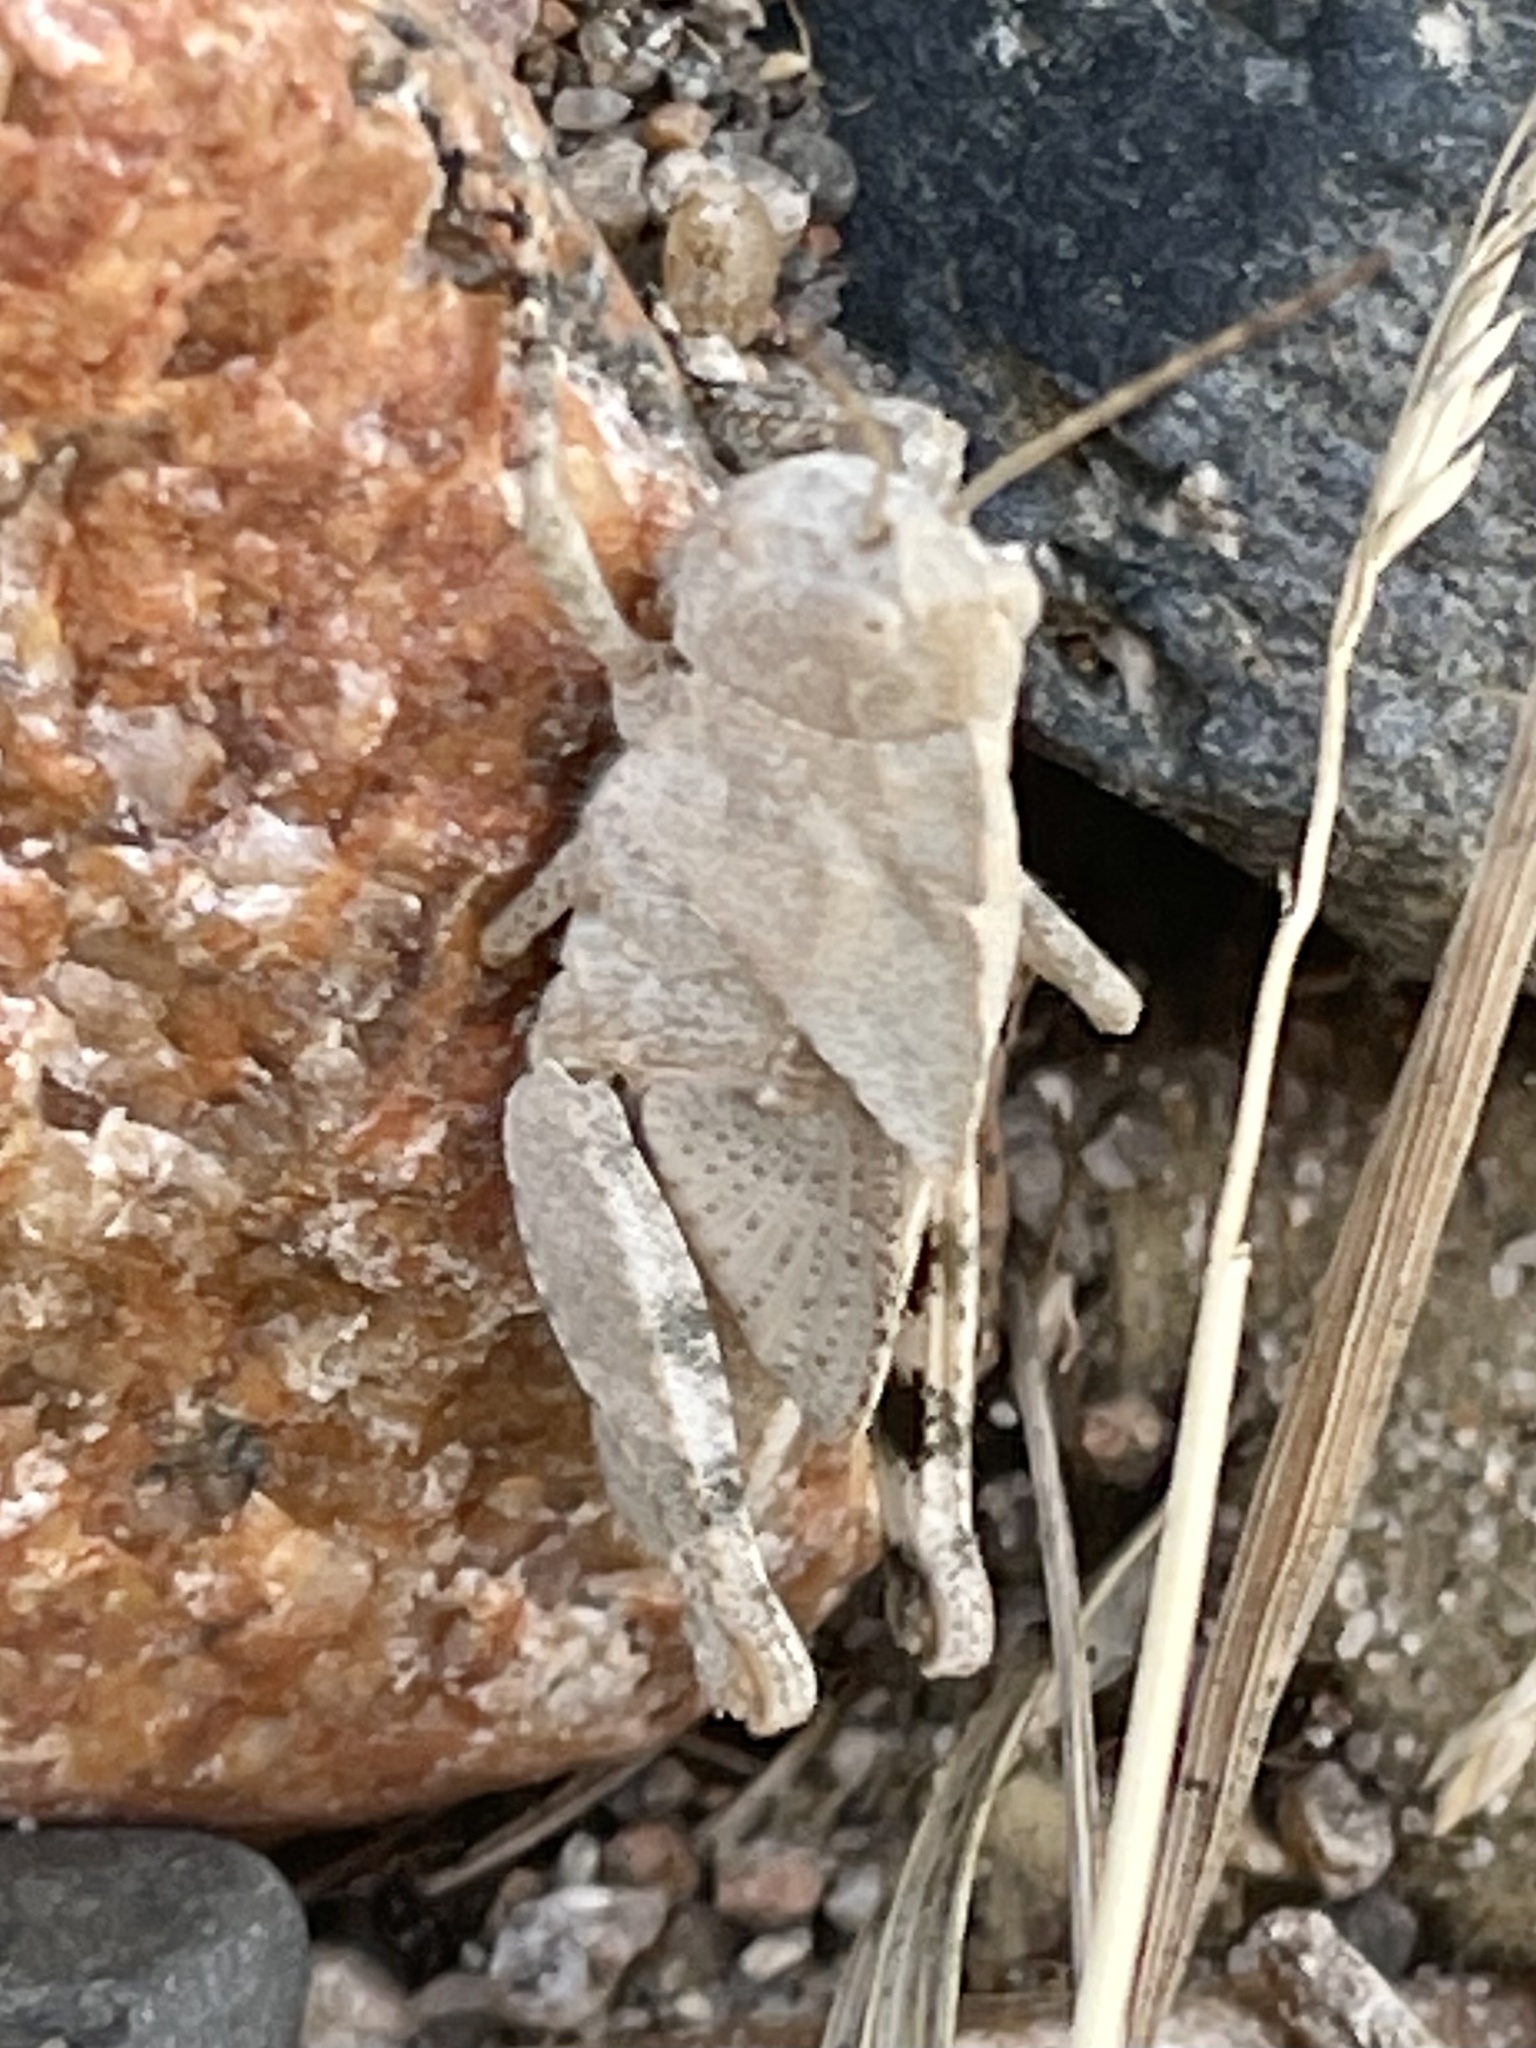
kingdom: Animalia
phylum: Arthropoda
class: Insecta
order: Orthoptera
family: Acrididae
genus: Dissosteira
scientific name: Dissosteira carolina
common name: Carolina grasshopper
